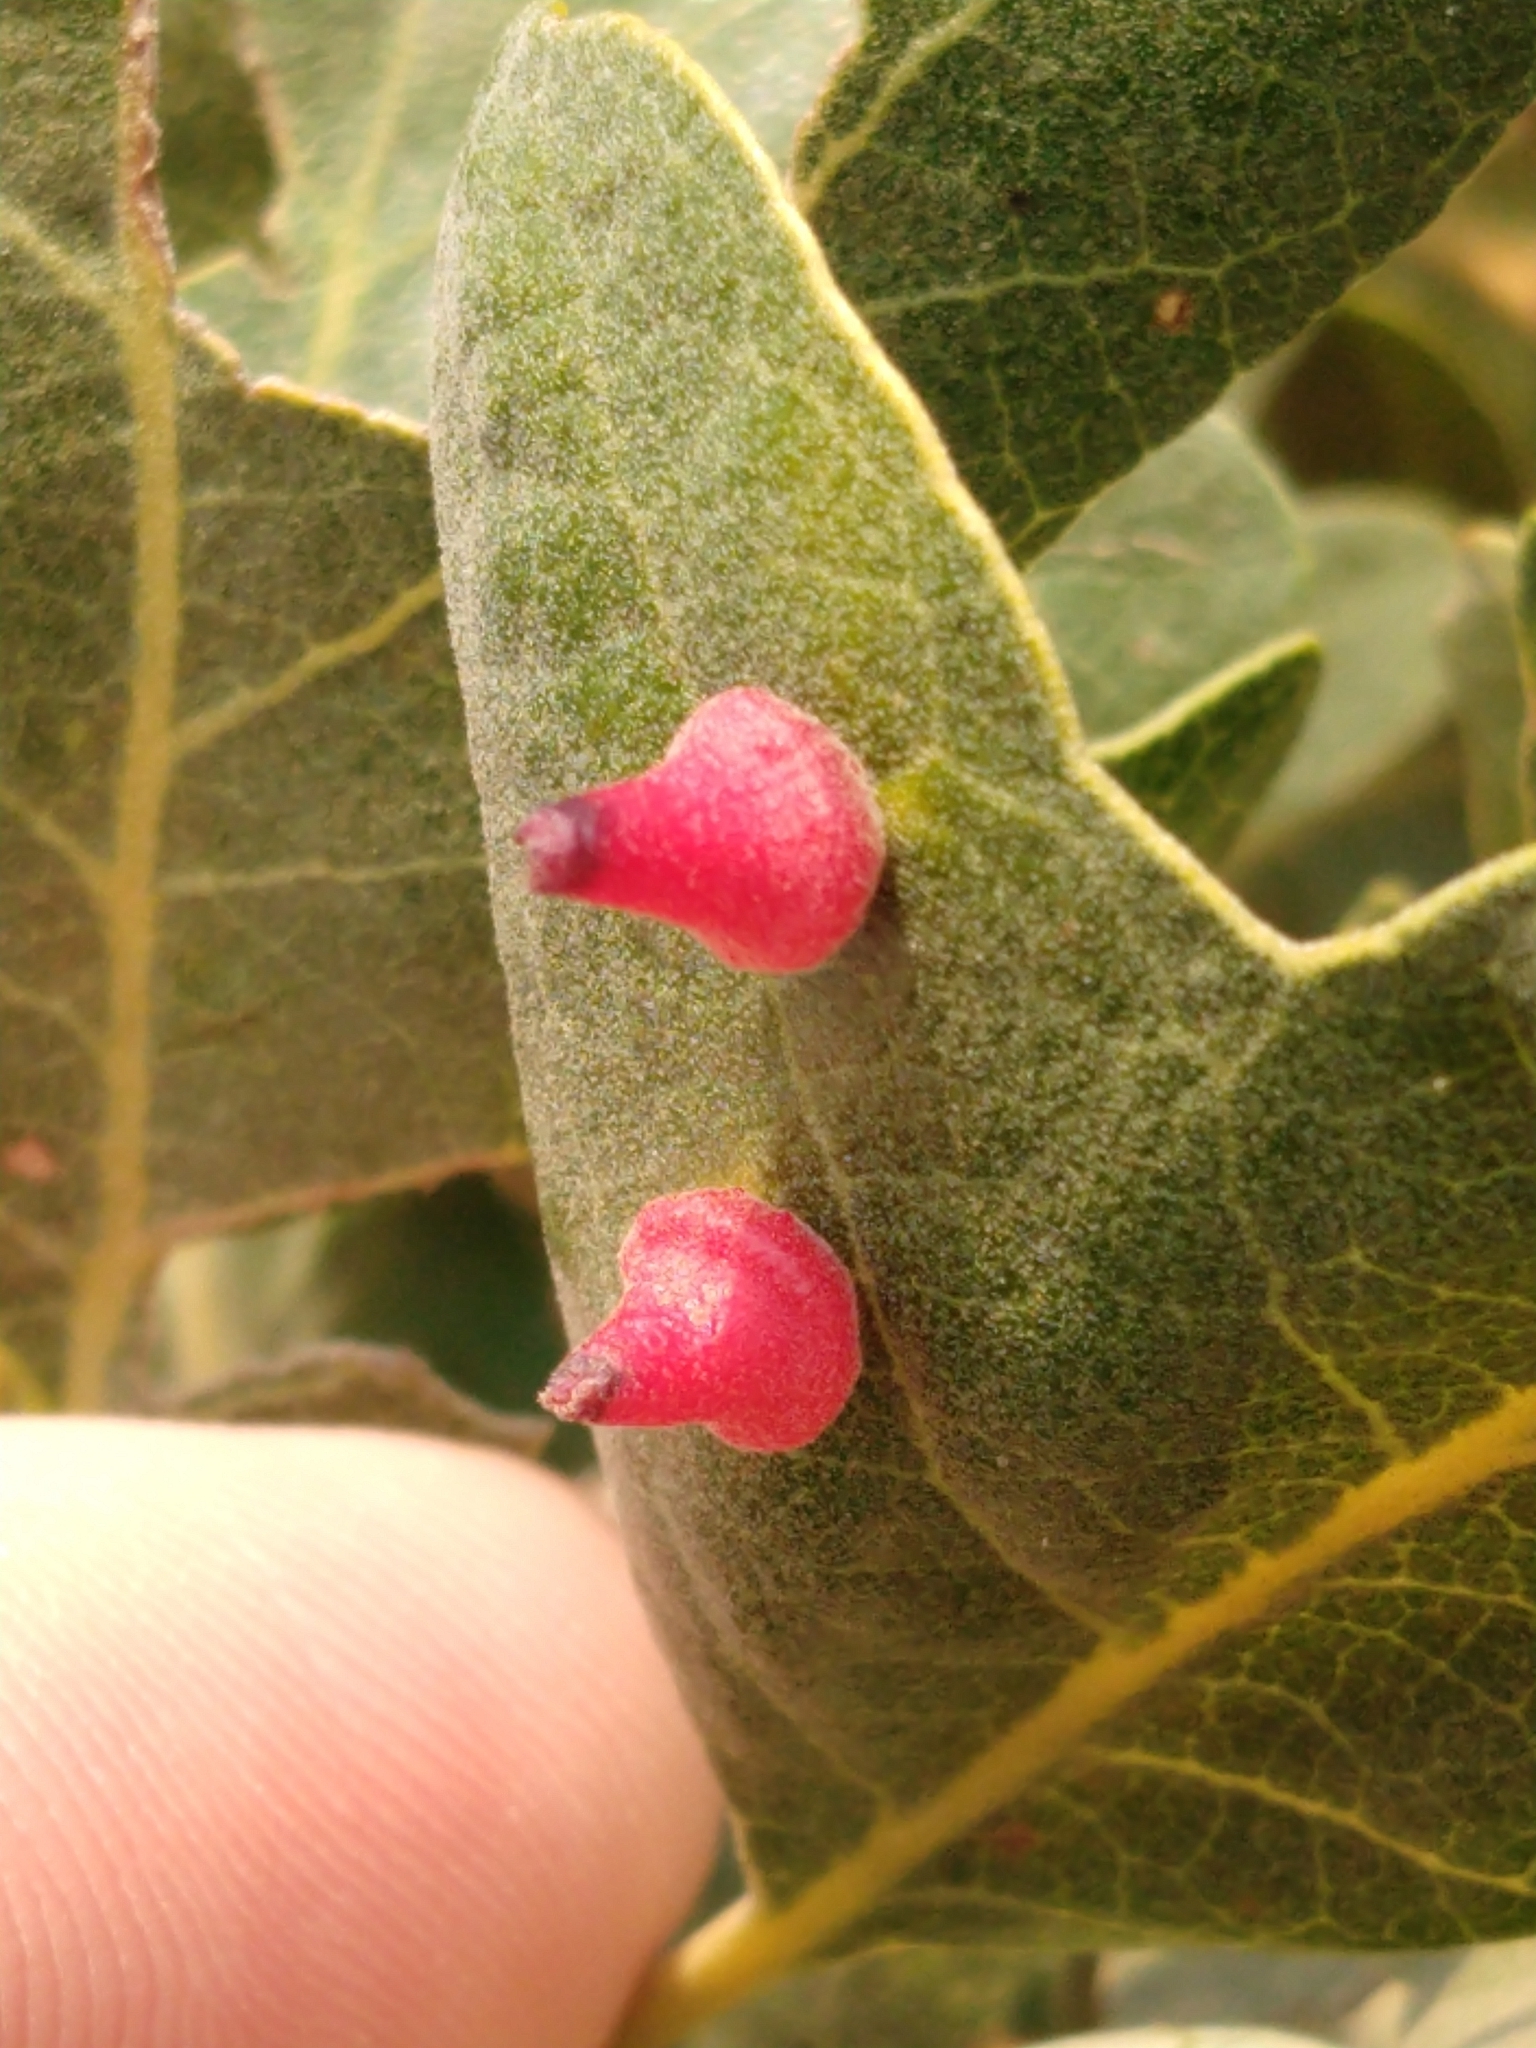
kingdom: Animalia
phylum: Arthropoda
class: Insecta
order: Hymenoptera
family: Cynipidae
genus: Andricus
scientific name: Andricus
